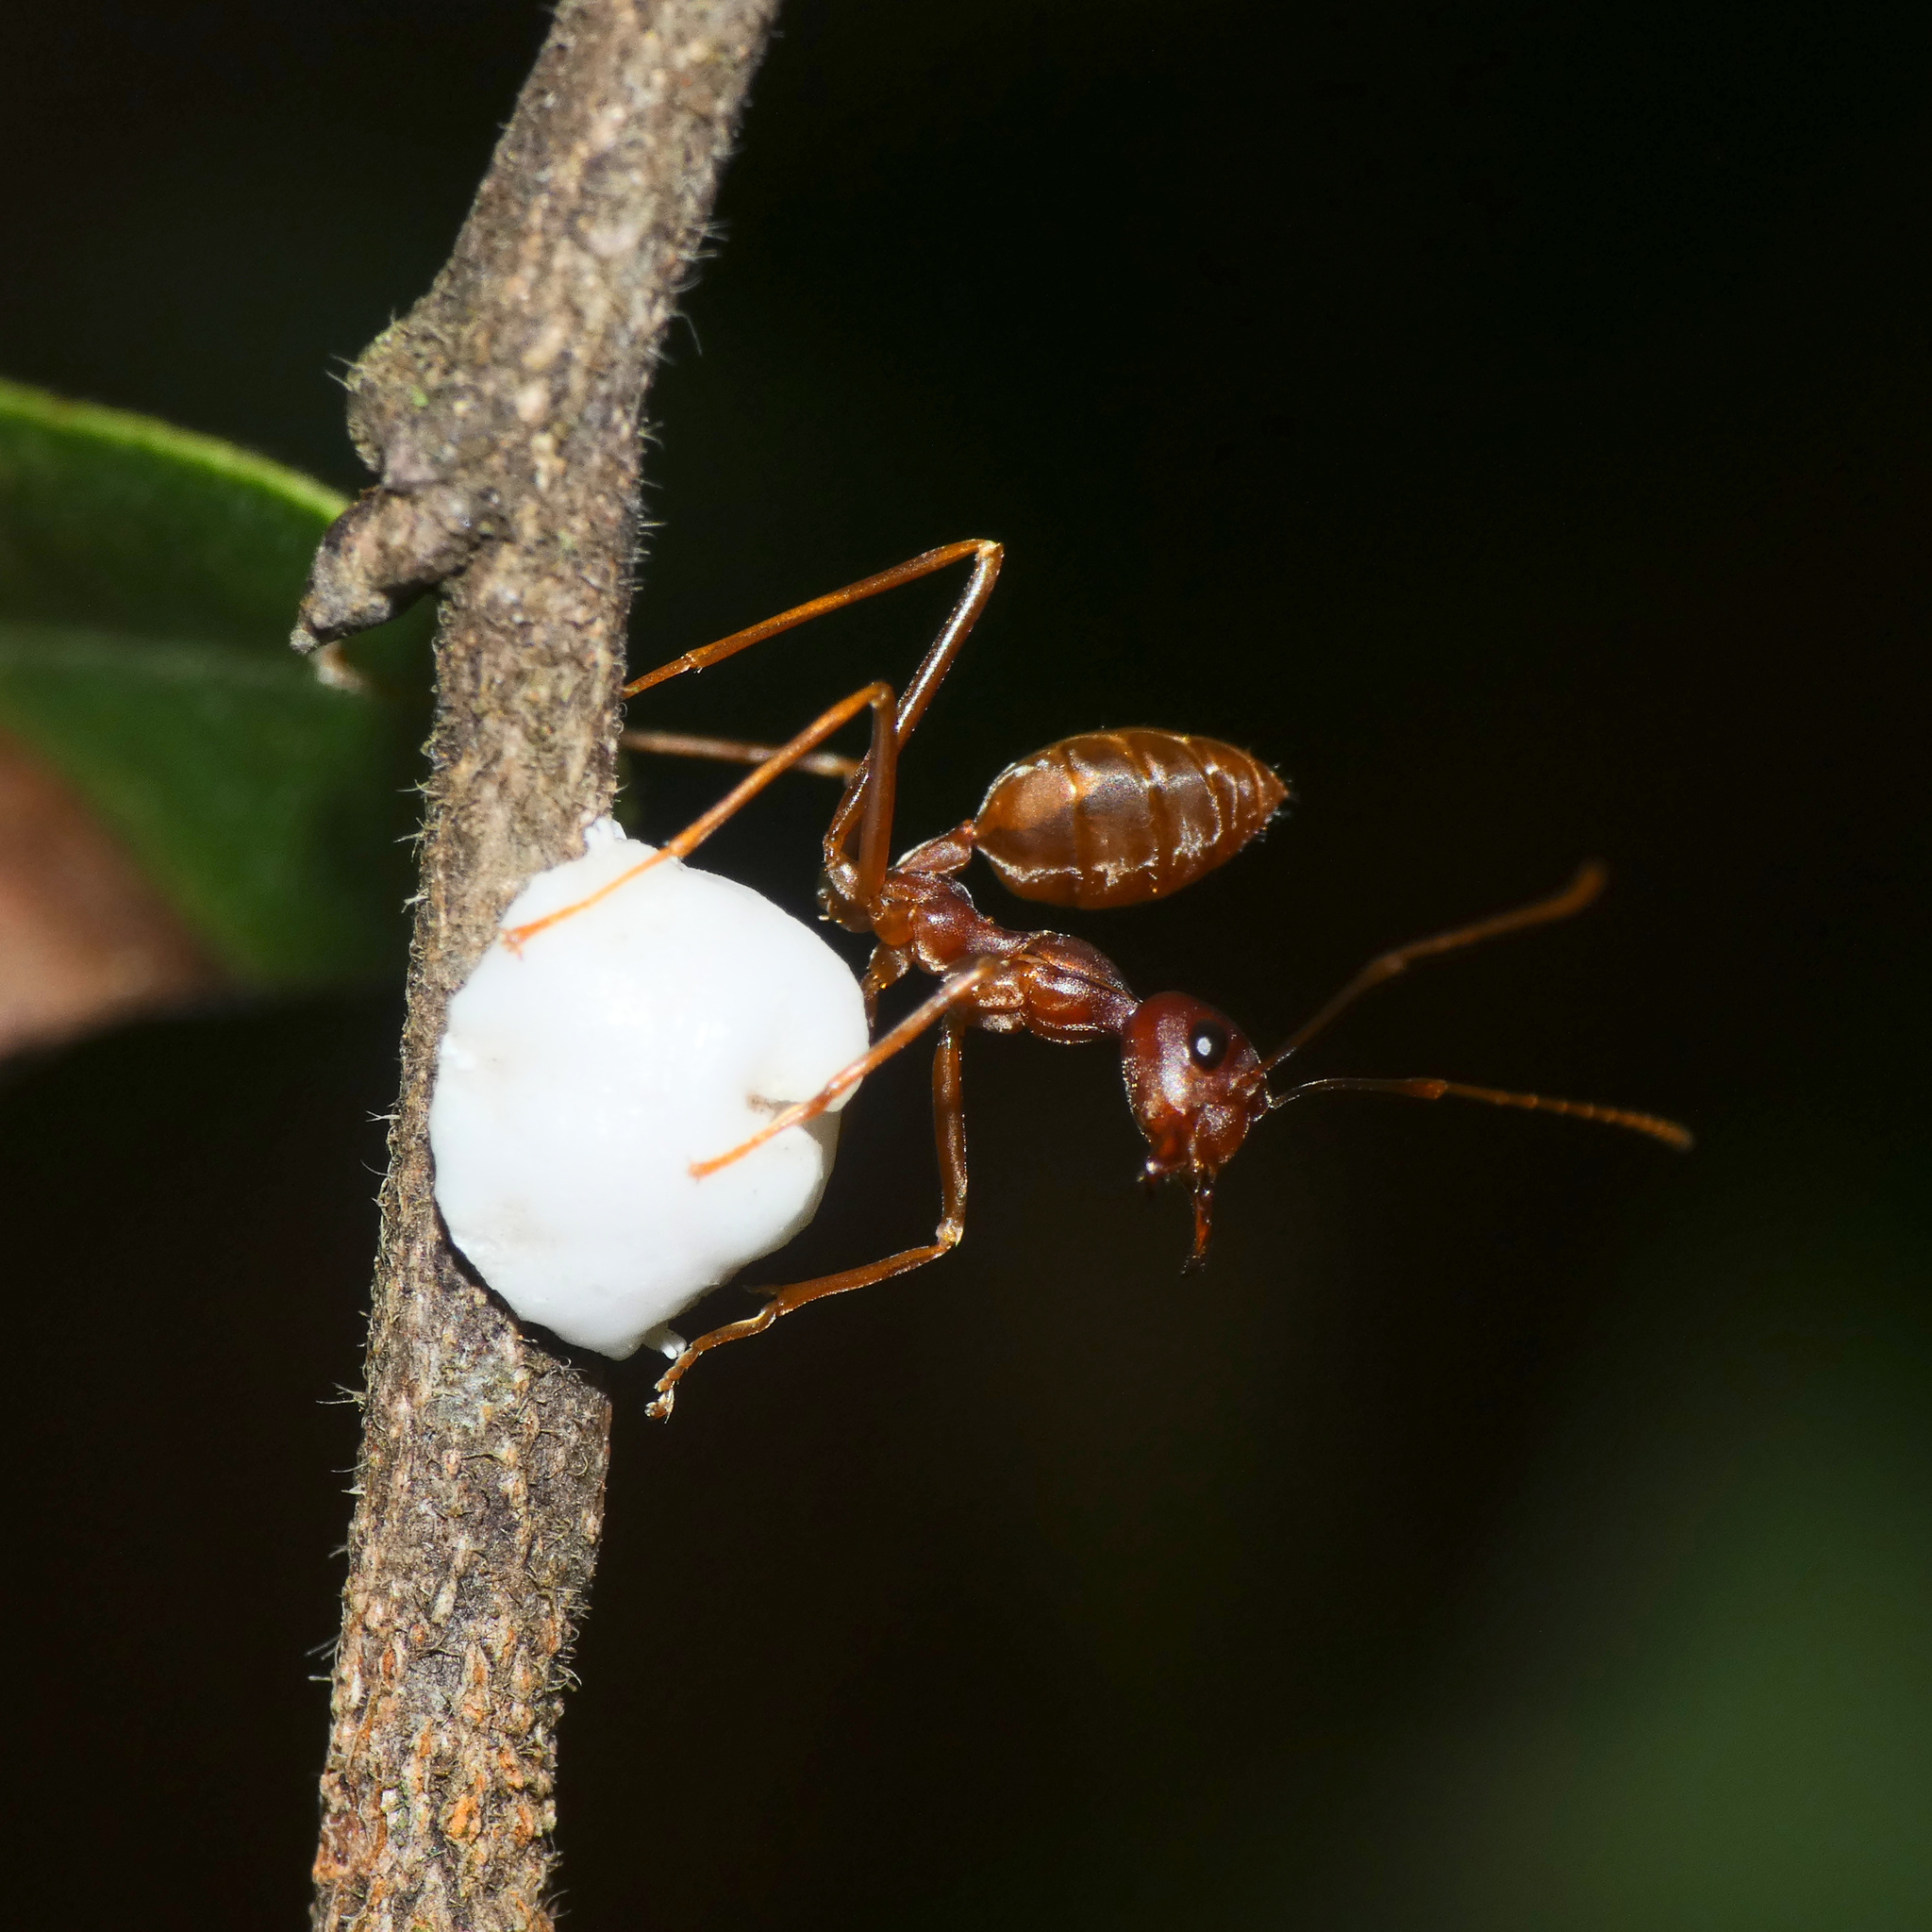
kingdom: Animalia
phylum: Arthropoda
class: Insecta
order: Hymenoptera
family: Formicidae
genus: Oecophylla
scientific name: Oecophylla longinoda
